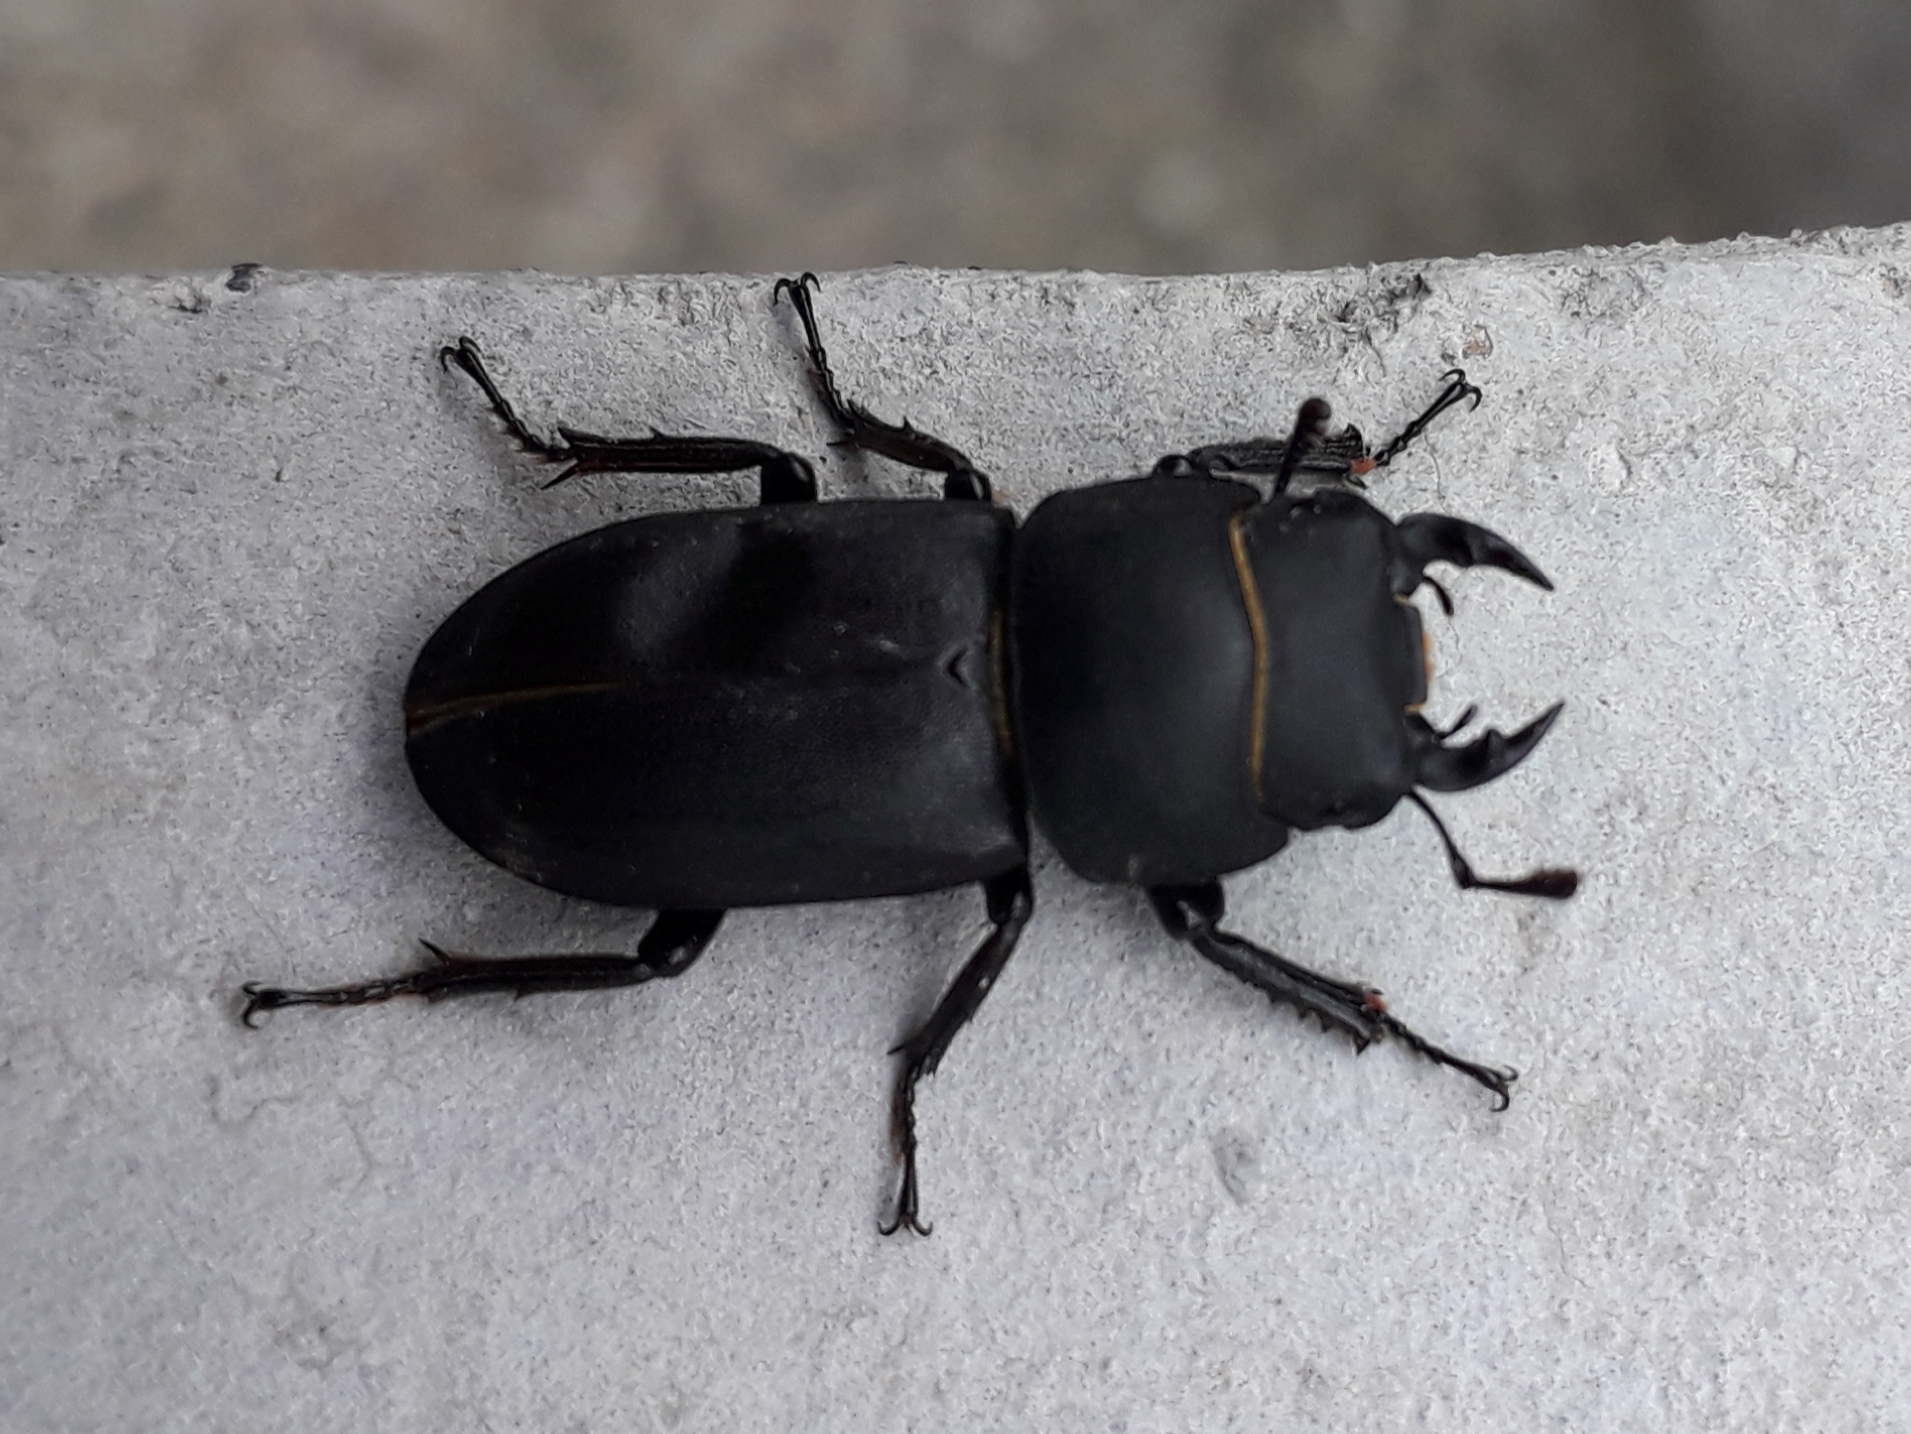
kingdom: Animalia
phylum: Arthropoda
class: Insecta
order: Coleoptera
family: Lucanidae
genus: Dorcus
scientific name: Dorcus parallelipipedus
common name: Lesser stag beetle
